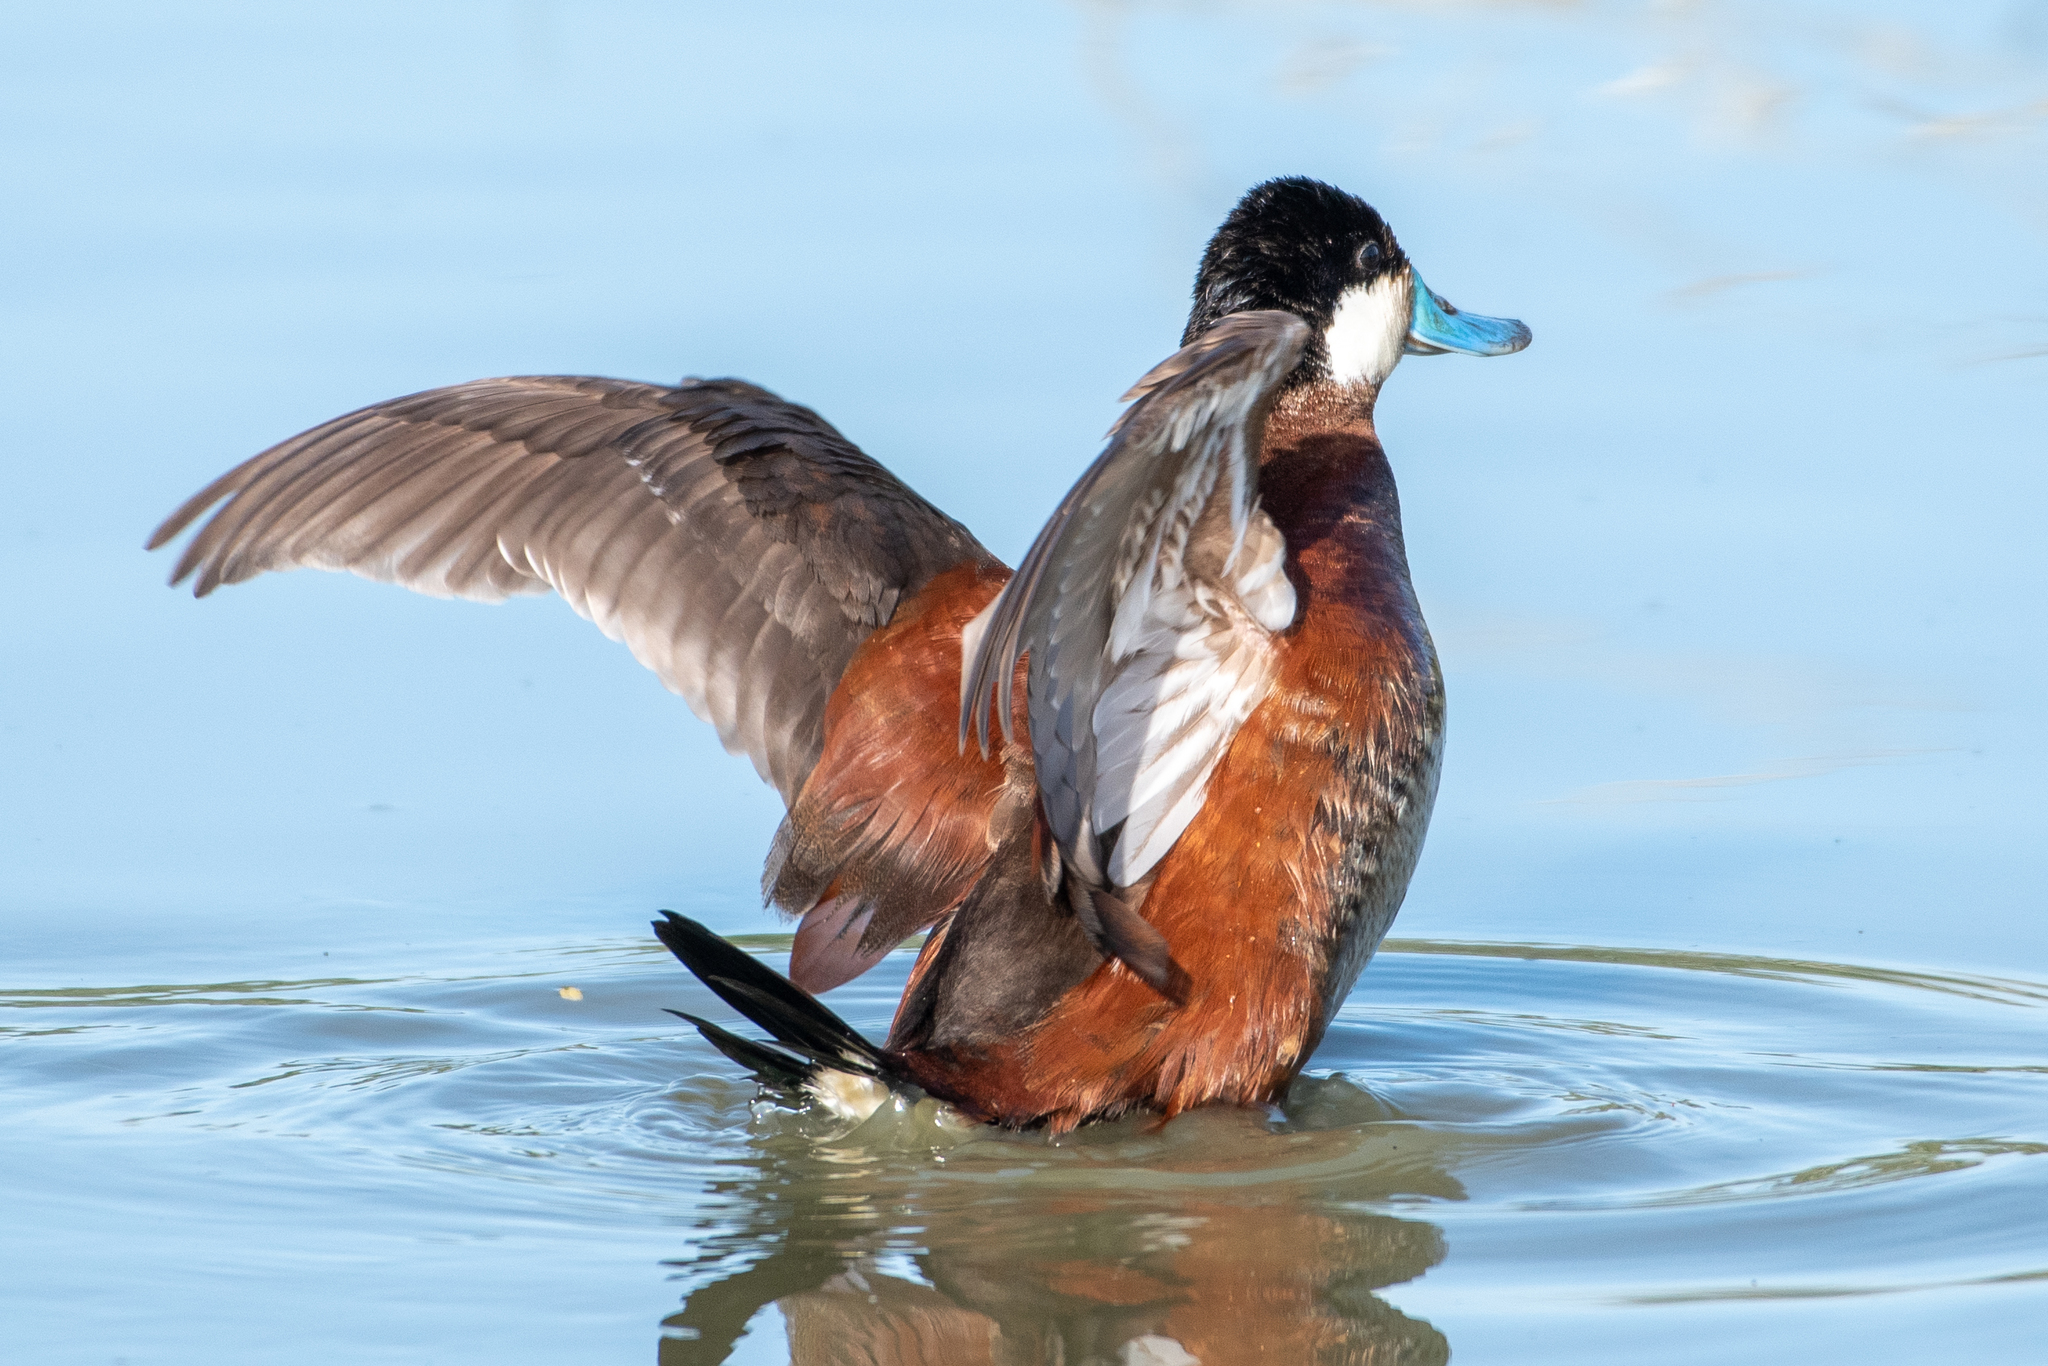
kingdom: Animalia
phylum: Chordata
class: Aves
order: Anseriformes
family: Anatidae
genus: Oxyura
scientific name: Oxyura jamaicensis
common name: Ruddy duck
